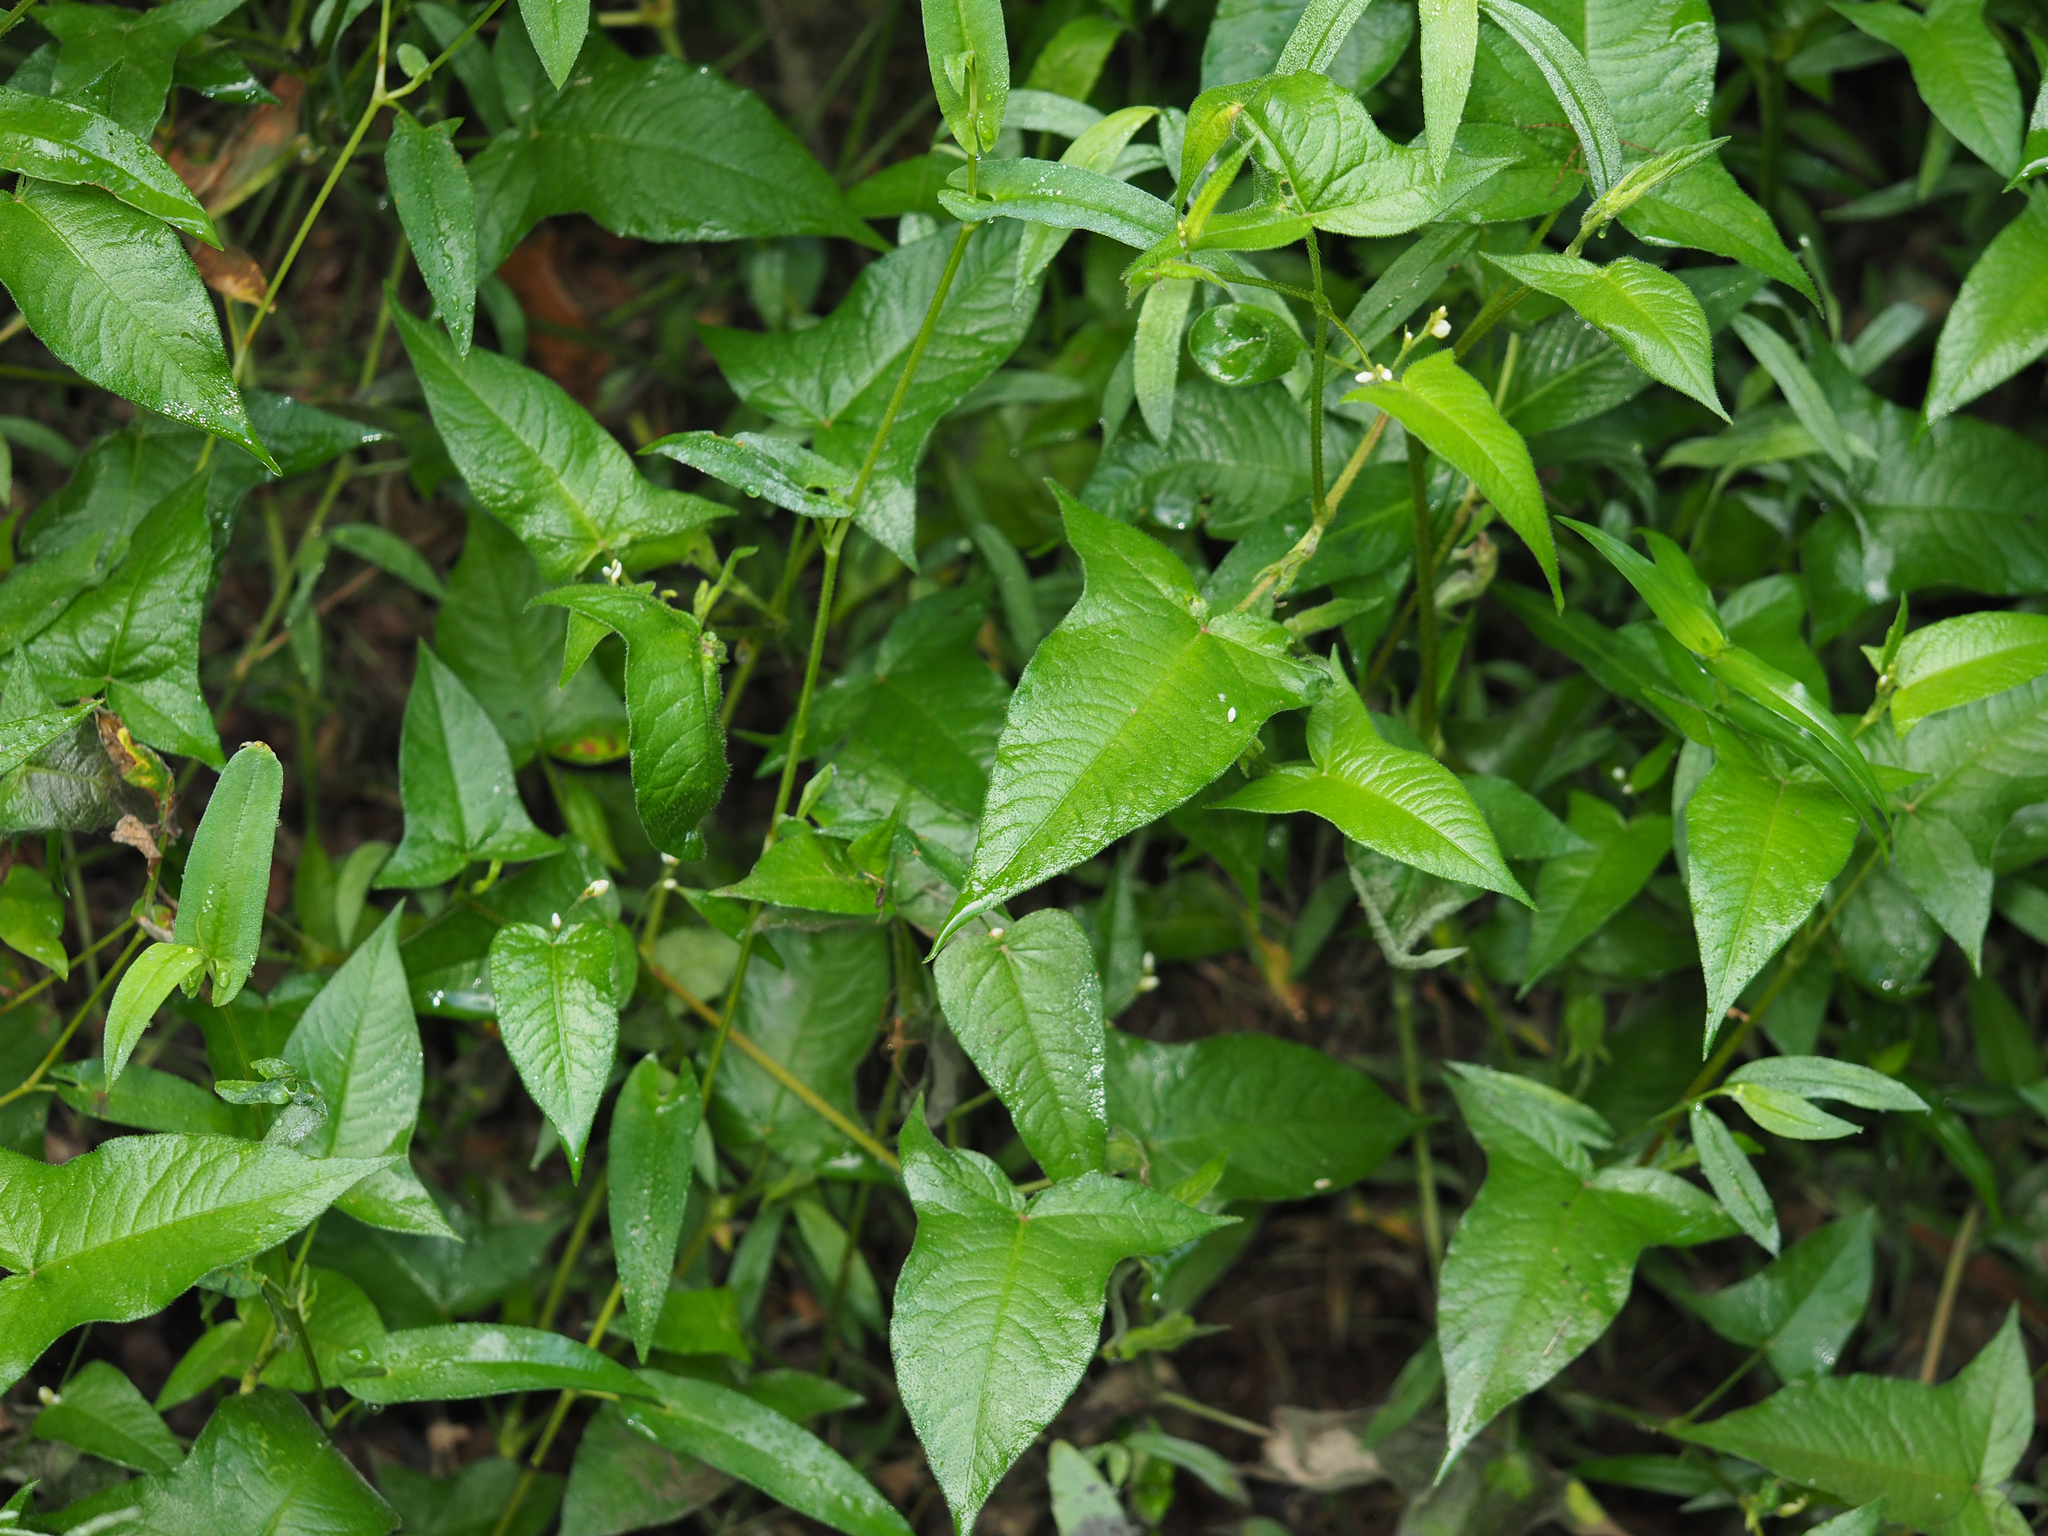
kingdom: Plantae
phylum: Tracheophyta
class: Magnoliopsida
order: Caryophyllales
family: Polygonaceae
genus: Persicaria
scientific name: Persicaria arifolia
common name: Halberd-leaved tear-thumb
